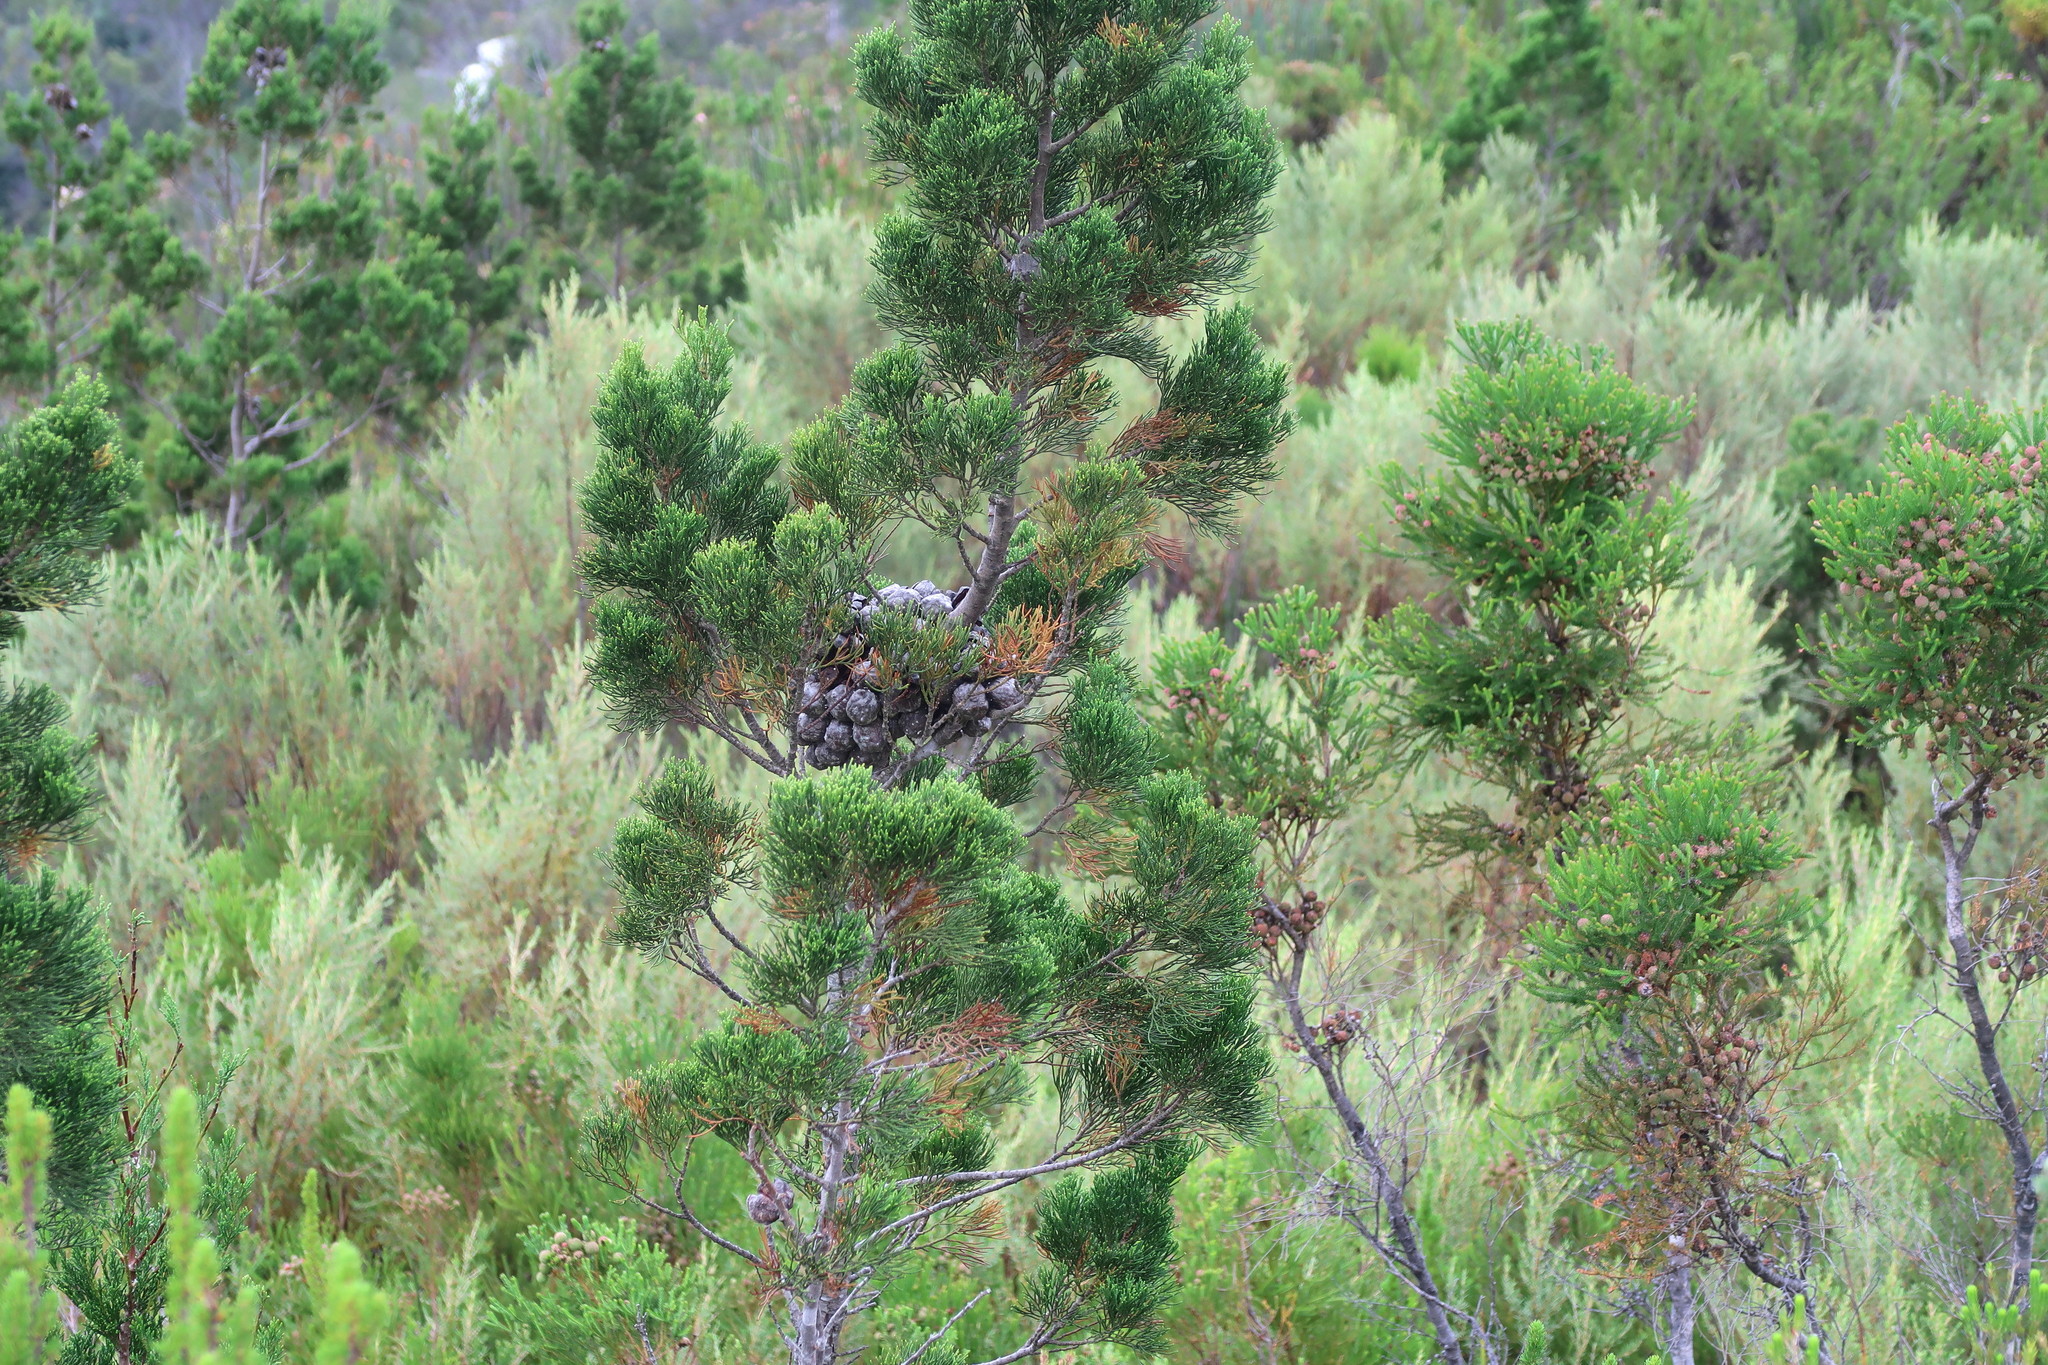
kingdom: Plantae
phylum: Tracheophyta
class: Pinopsida
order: Pinales
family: Cupressaceae
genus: Widdringtonia
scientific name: Widdringtonia nodiflora
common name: Cape cypress
